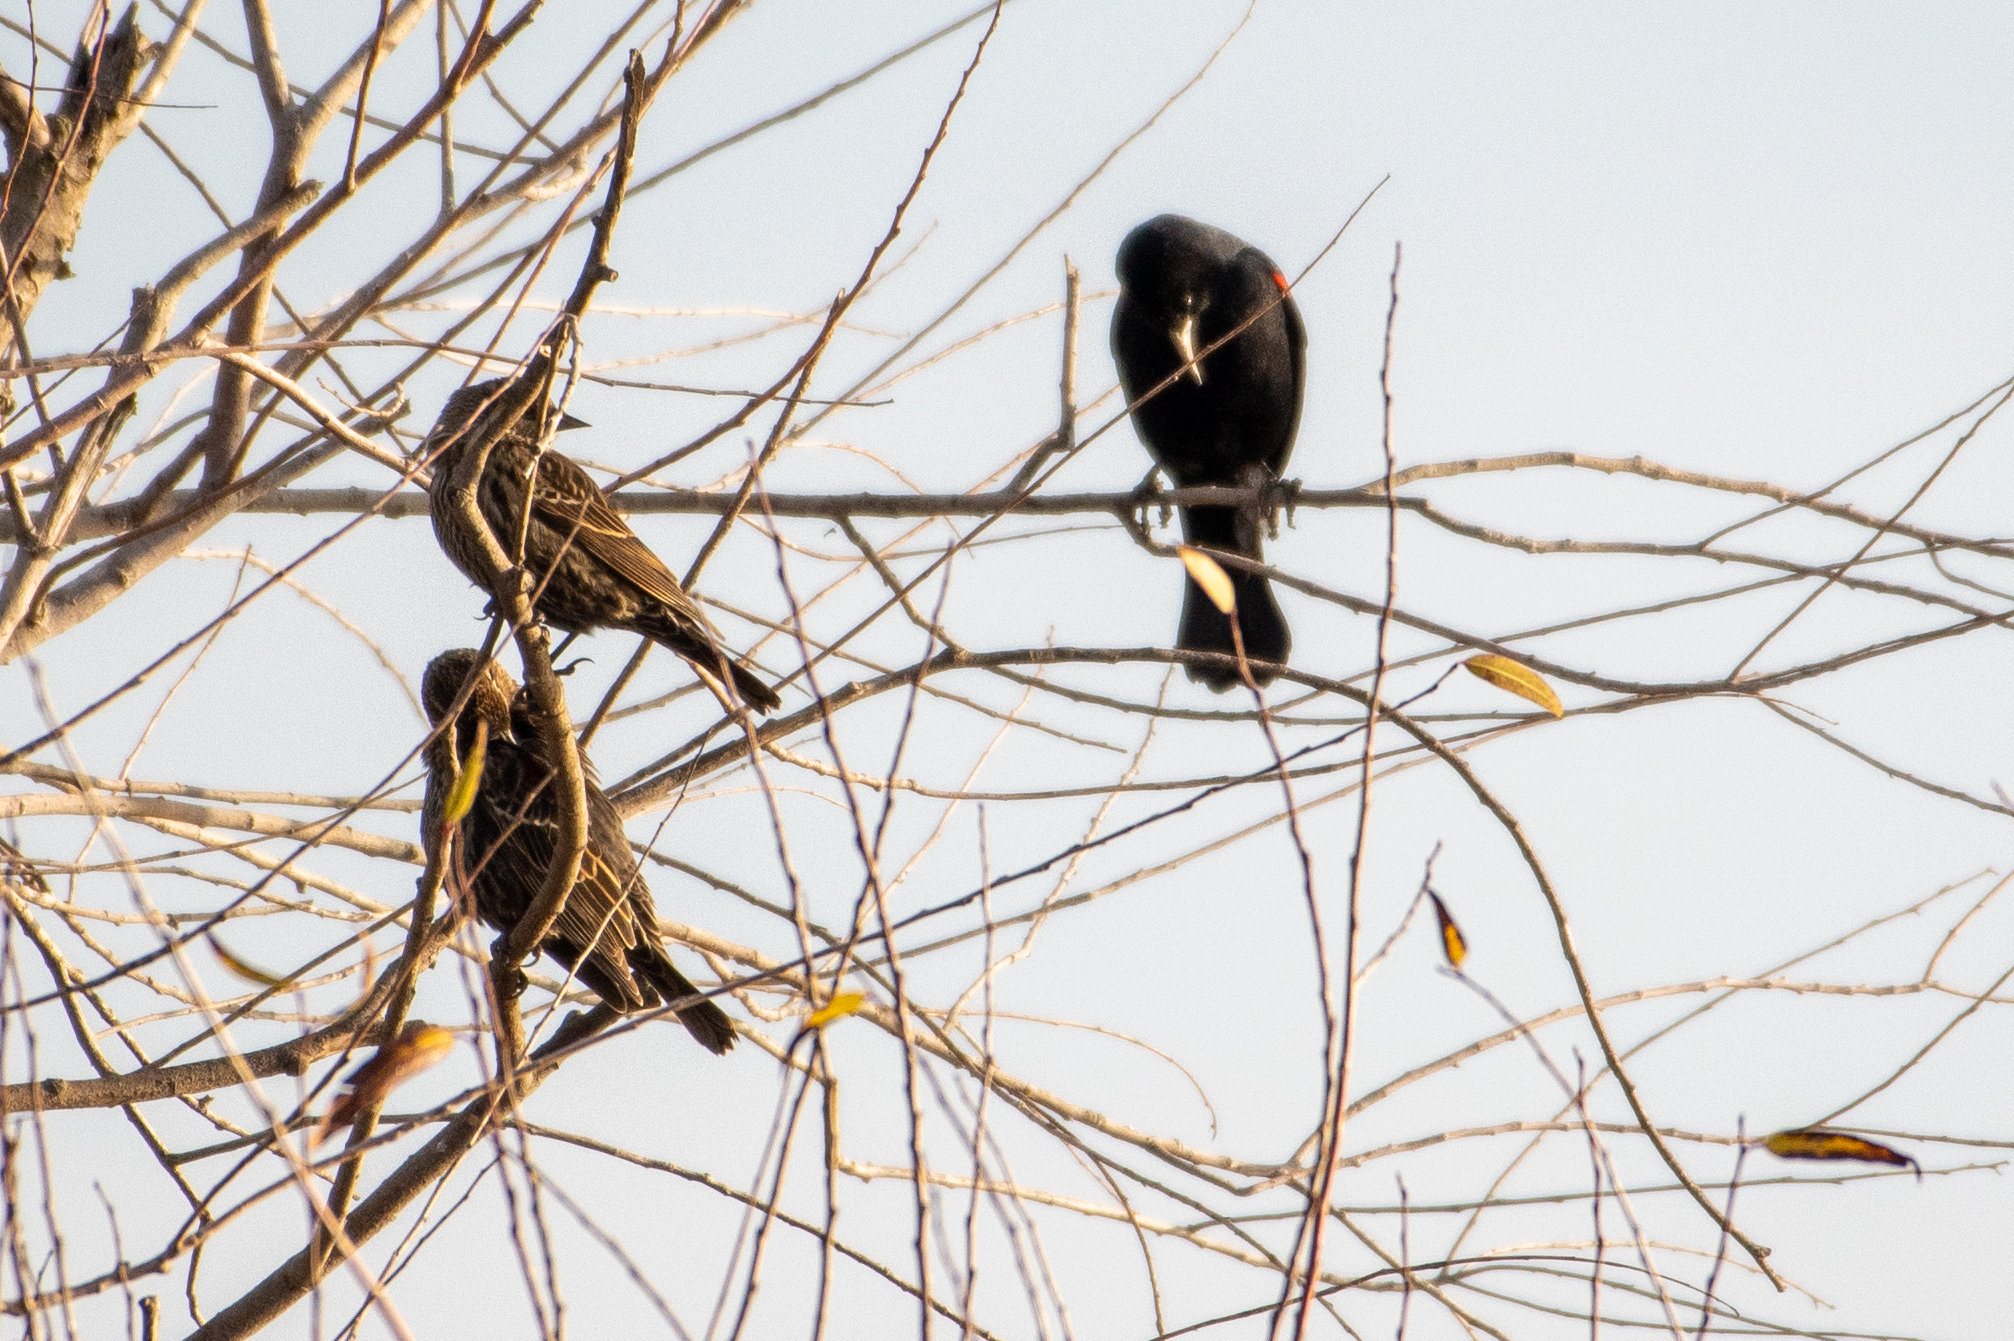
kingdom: Animalia
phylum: Chordata
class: Aves
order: Passeriformes
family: Icteridae
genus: Agelaius
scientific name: Agelaius phoeniceus
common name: Red-winged blackbird
